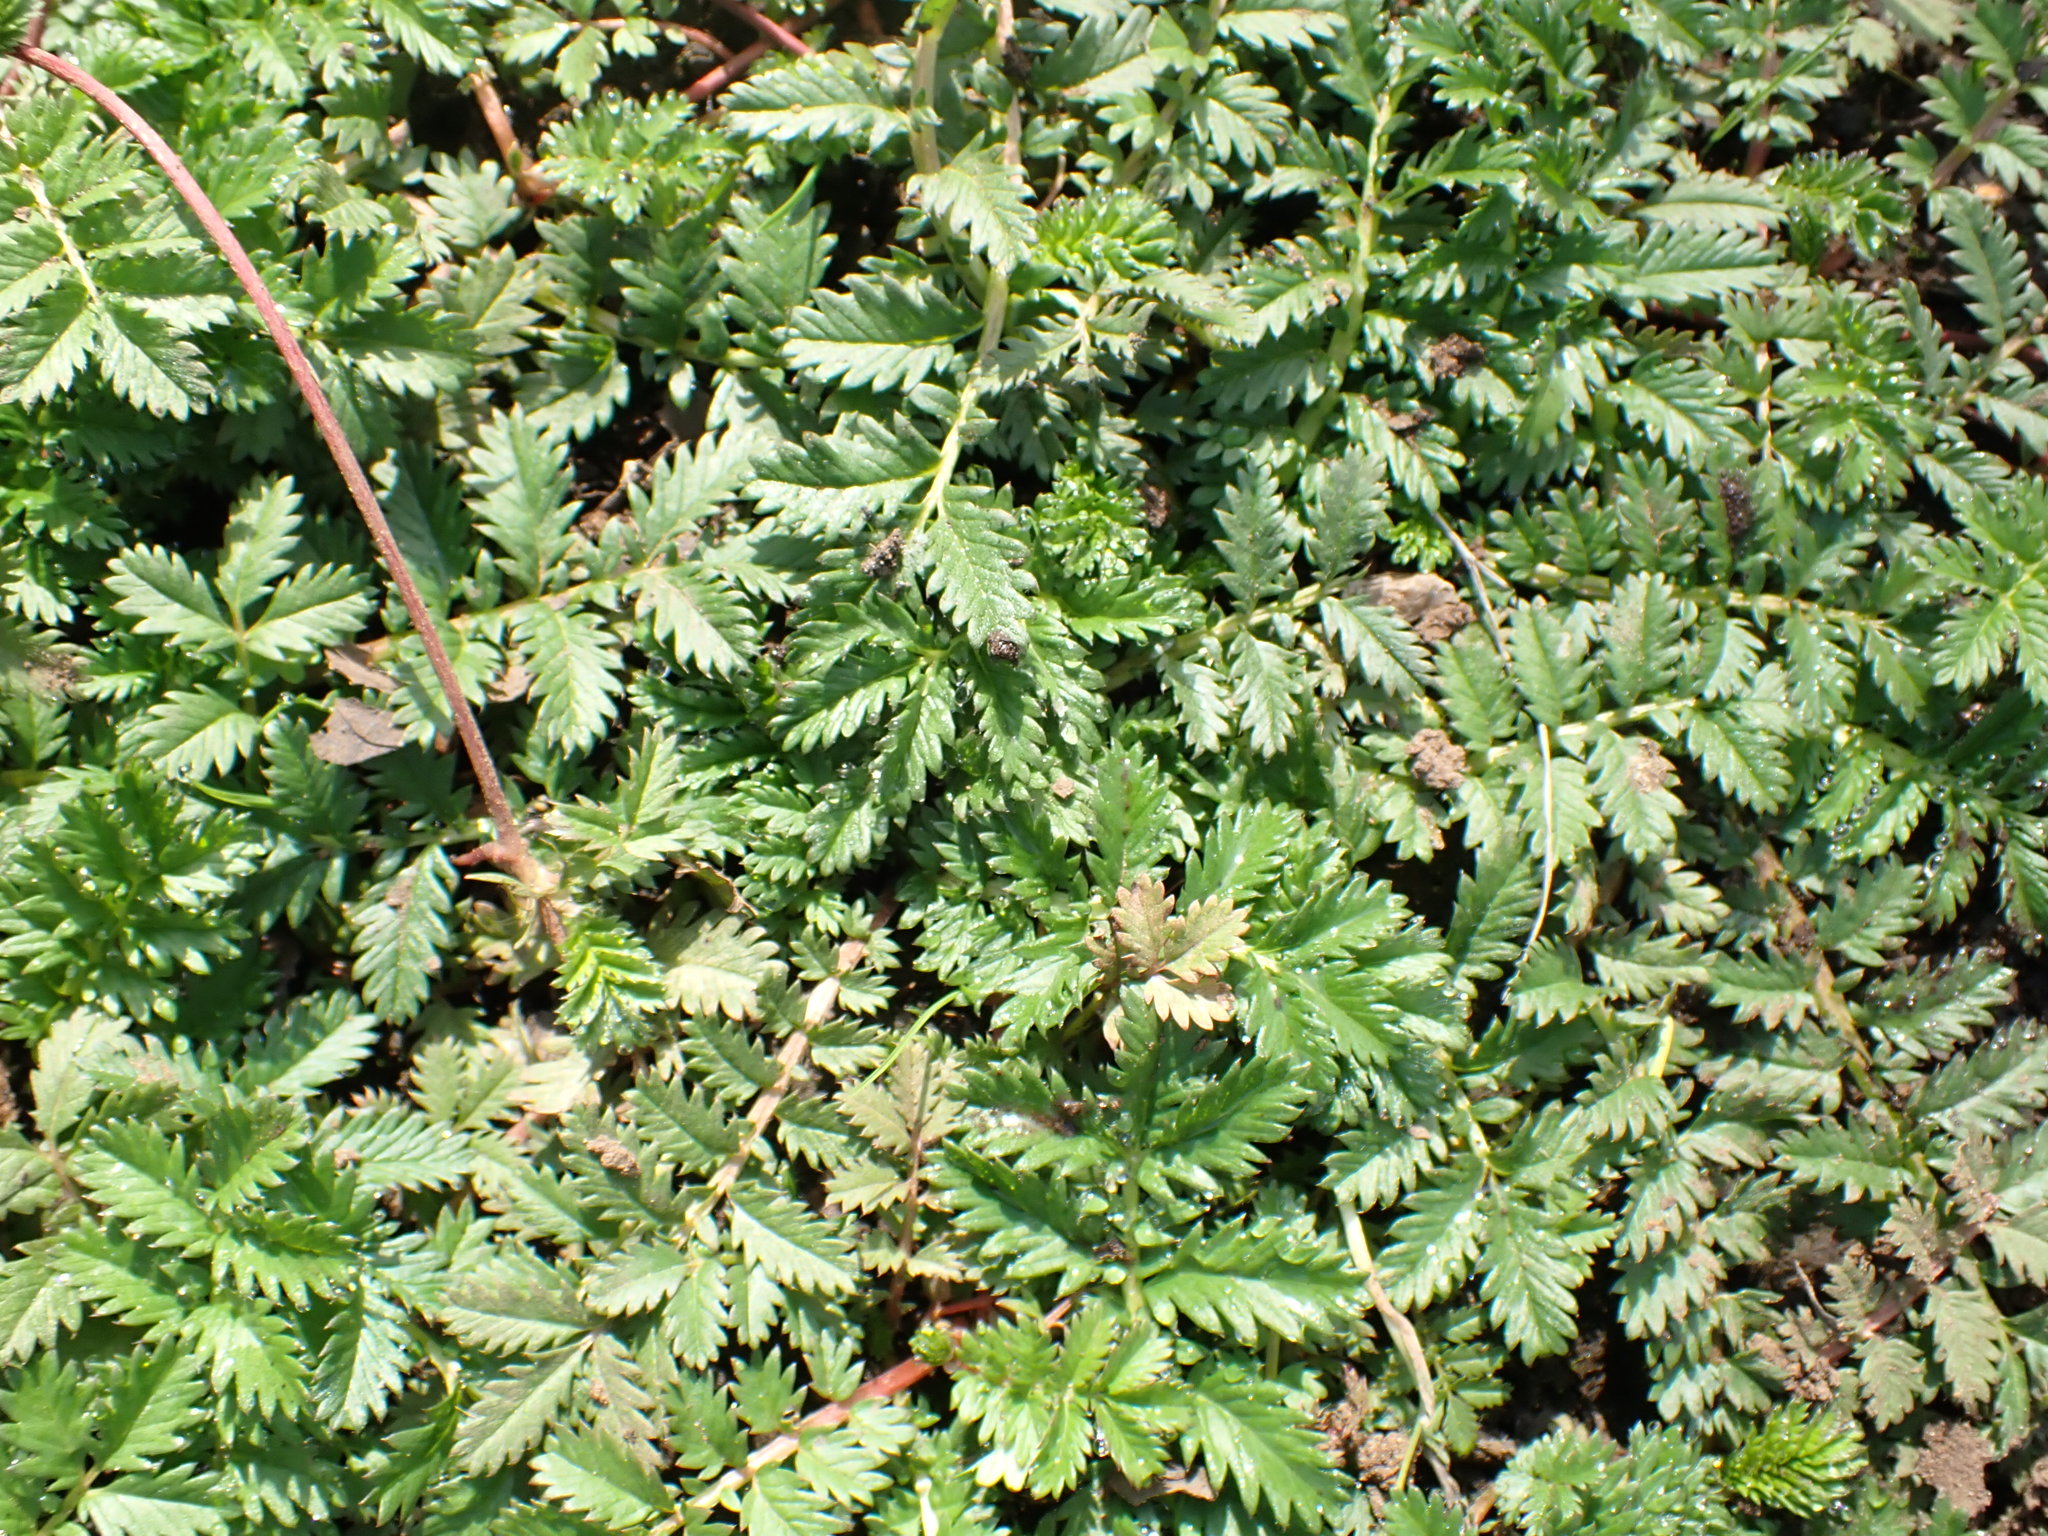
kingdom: Plantae
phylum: Tracheophyta
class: Magnoliopsida
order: Rosales
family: Rosaceae
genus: Argentina
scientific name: Argentina anserina
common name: Common silverweed
